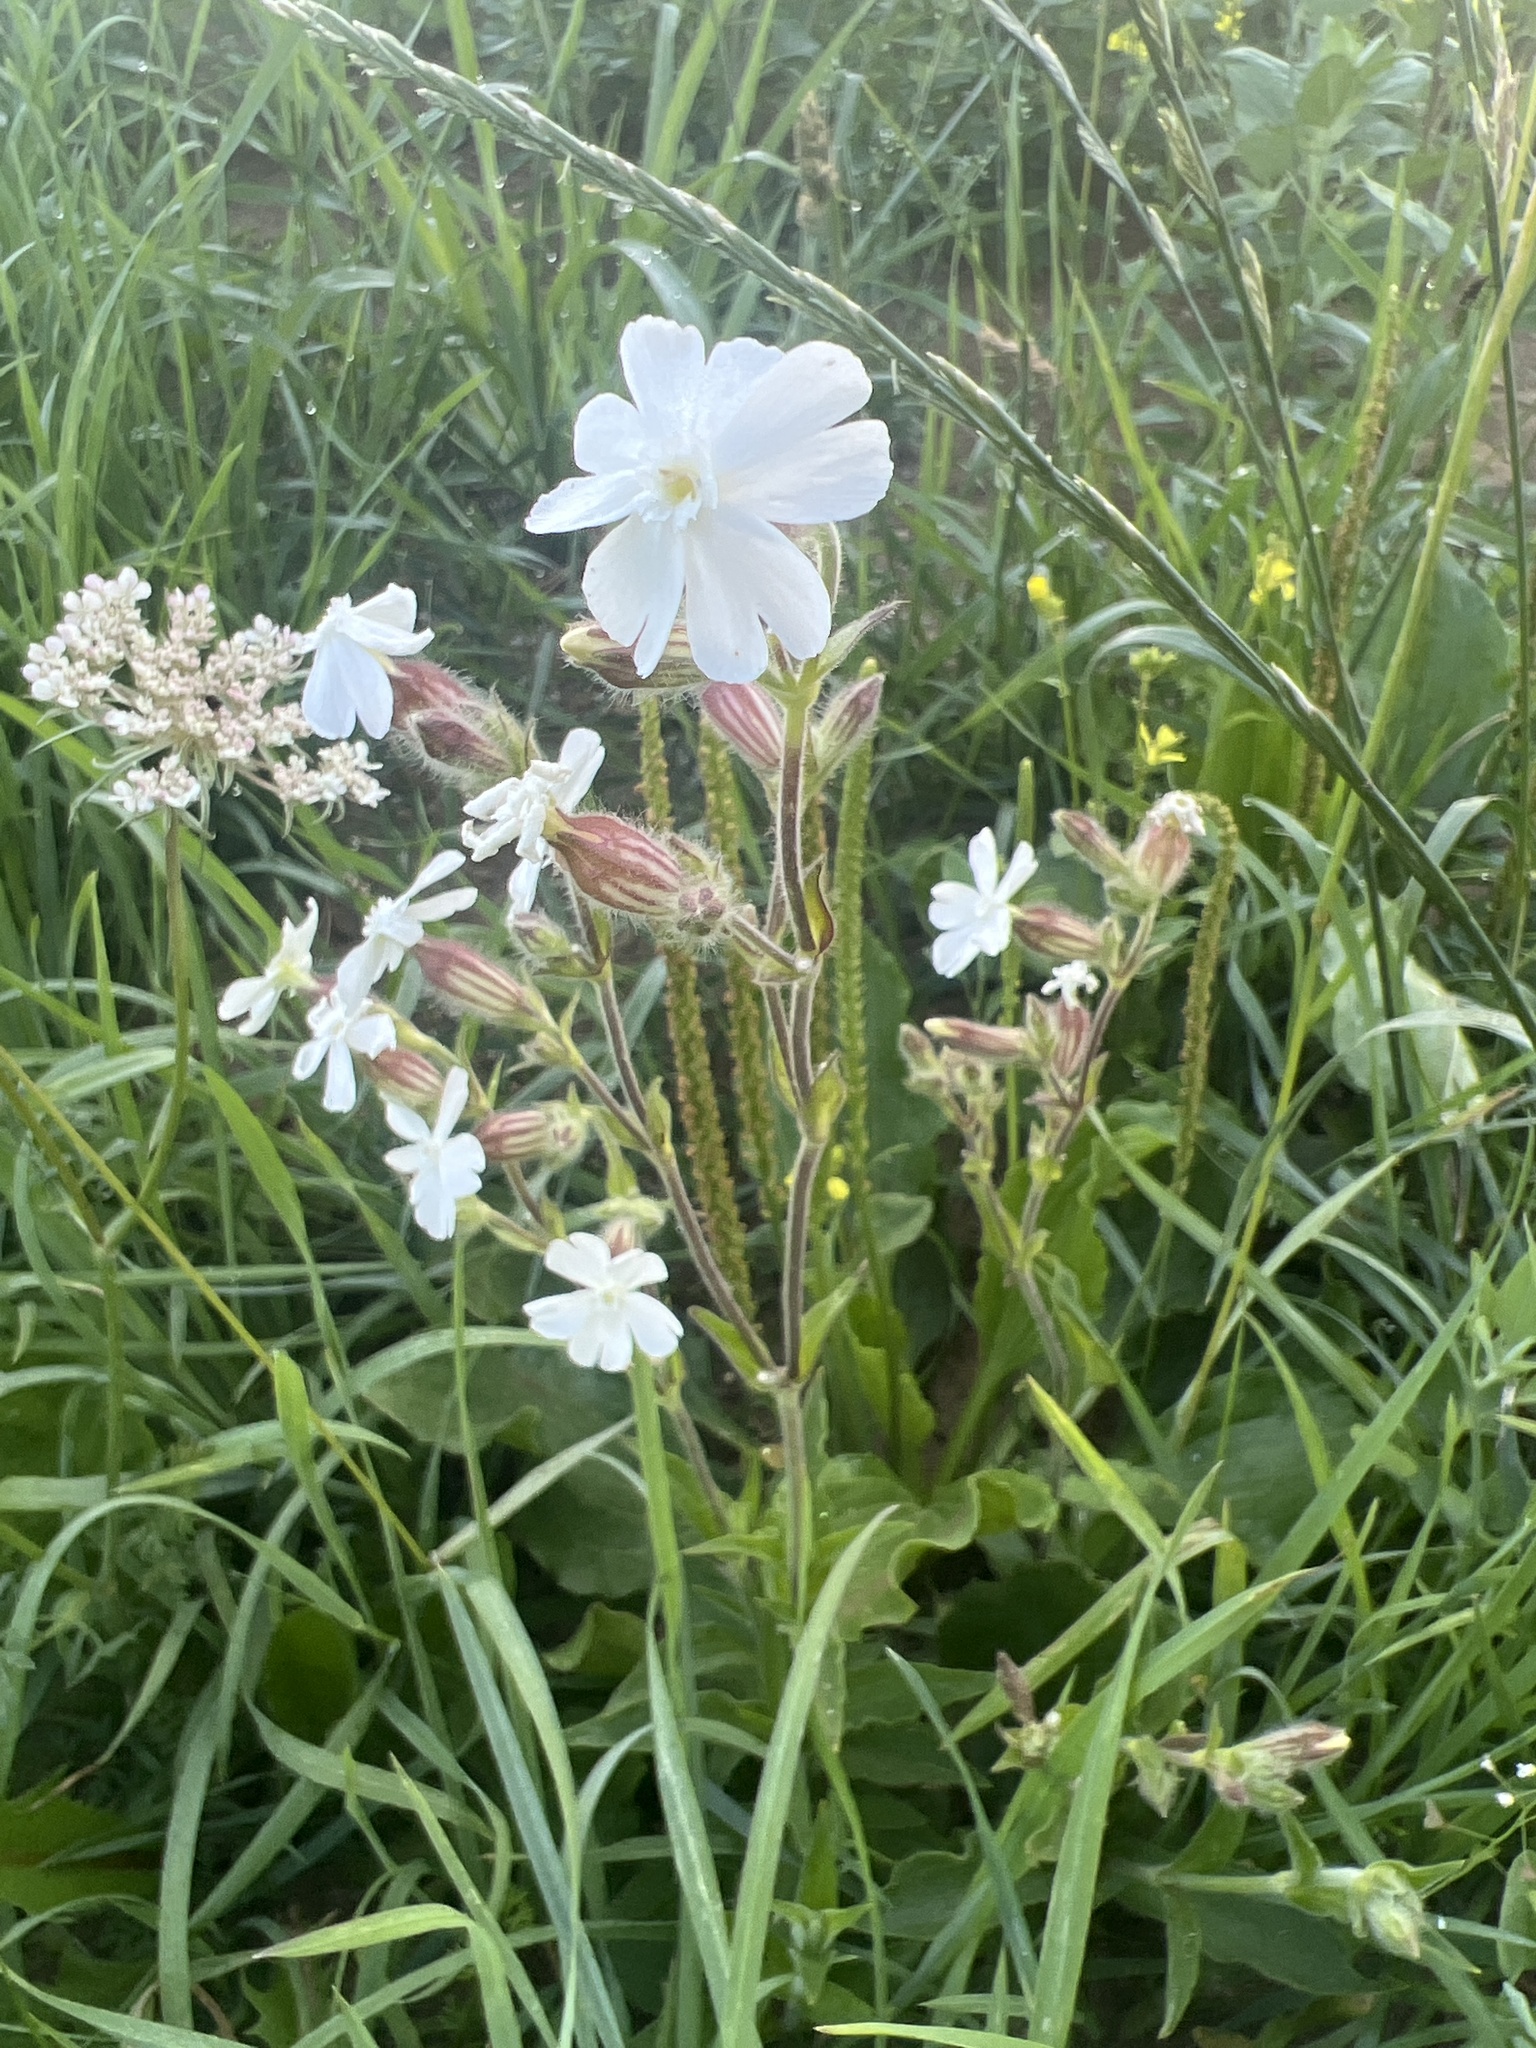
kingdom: Plantae
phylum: Tracheophyta
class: Magnoliopsida
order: Caryophyllales
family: Caryophyllaceae
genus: Silene
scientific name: Silene latifolia
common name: White campion
